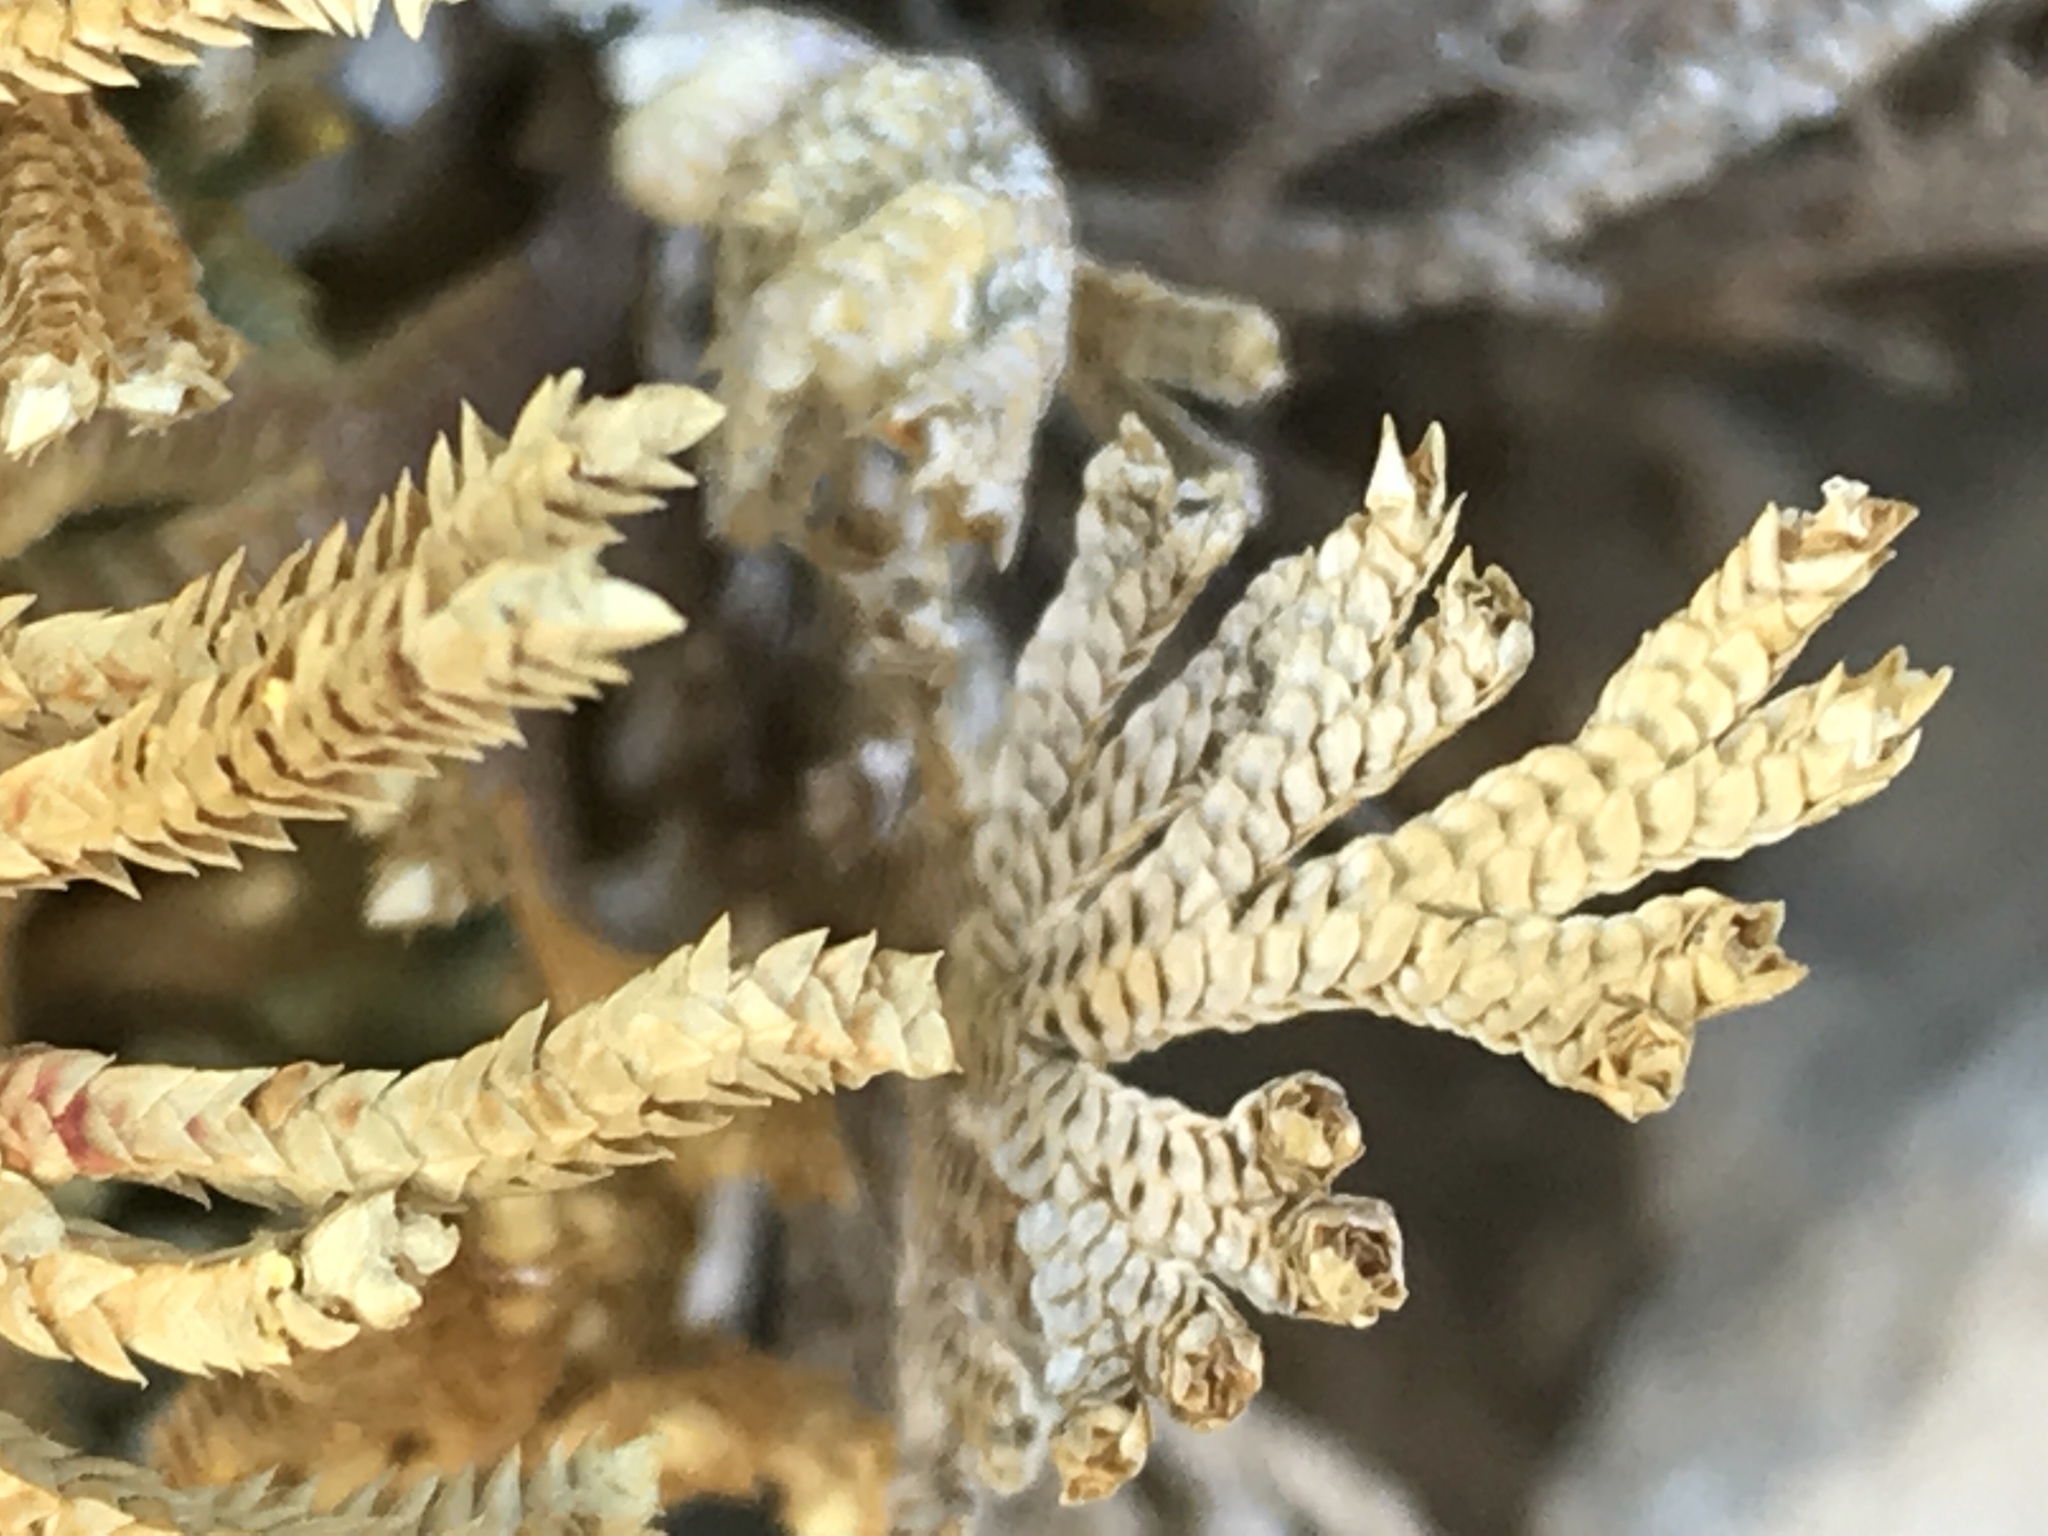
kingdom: Plantae
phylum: Tracheophyta
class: Lycopodiopsida
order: Selaginellales
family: Selaginellaceae
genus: Selaginella
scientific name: Selaginella lepidophylla
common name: Rose-of-jericho
